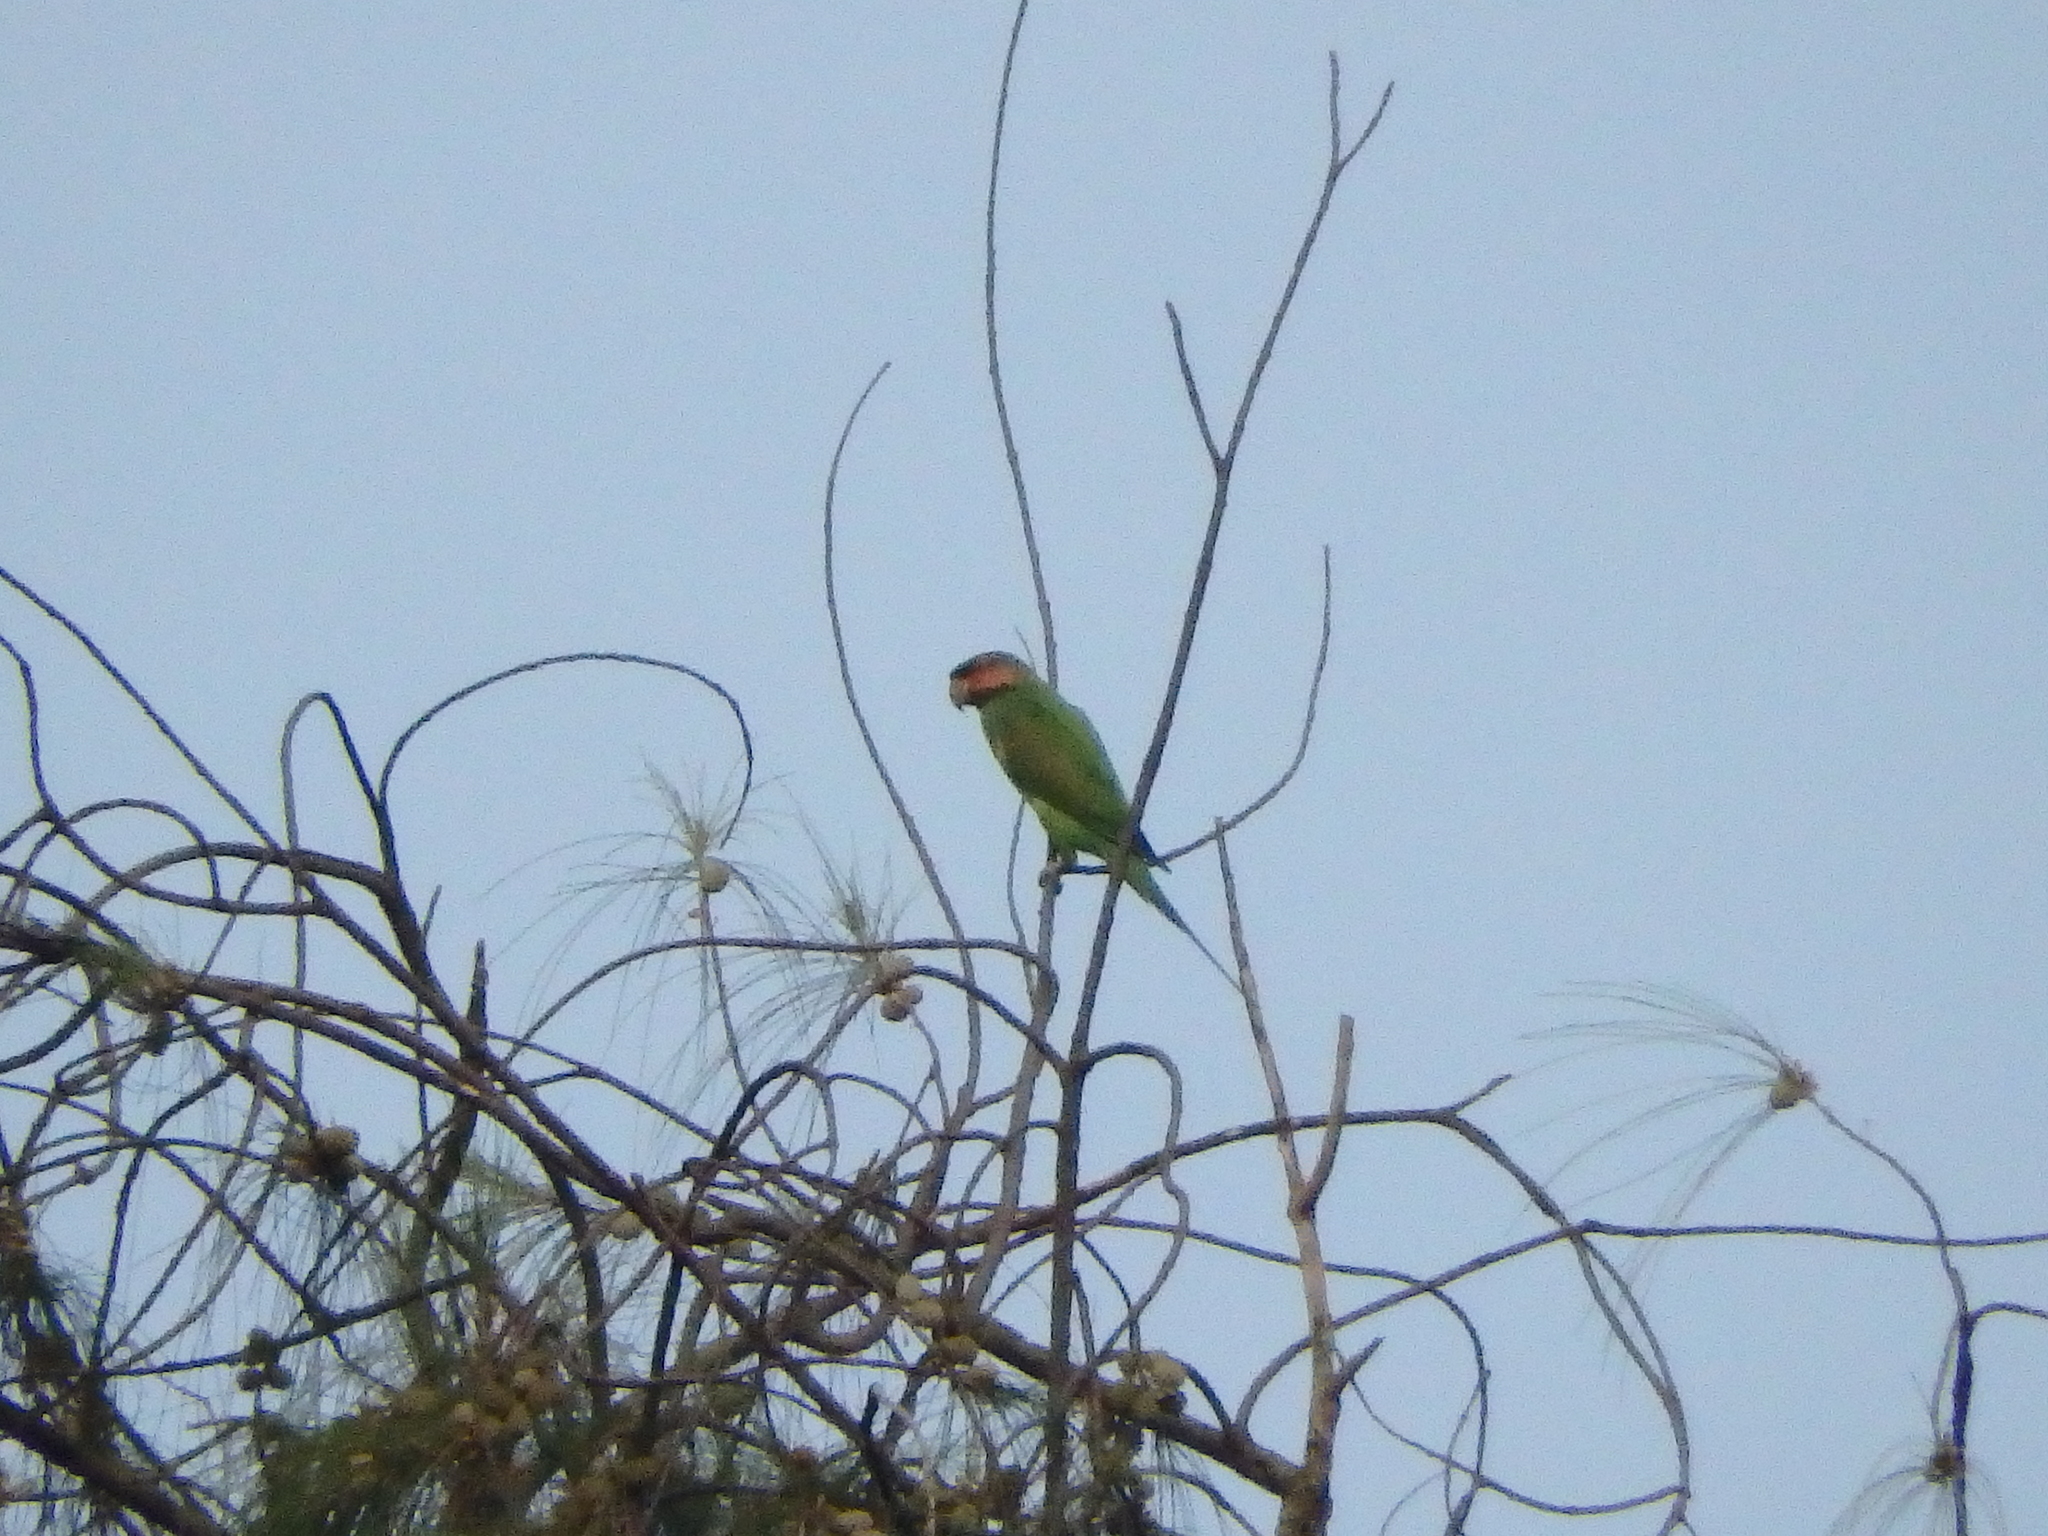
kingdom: Animalia
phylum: Chordata
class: Aves
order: Psittaciformes
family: Psittacidae
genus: Psittacula
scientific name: Psittacula longicauda
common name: Long-tailed parakeet
